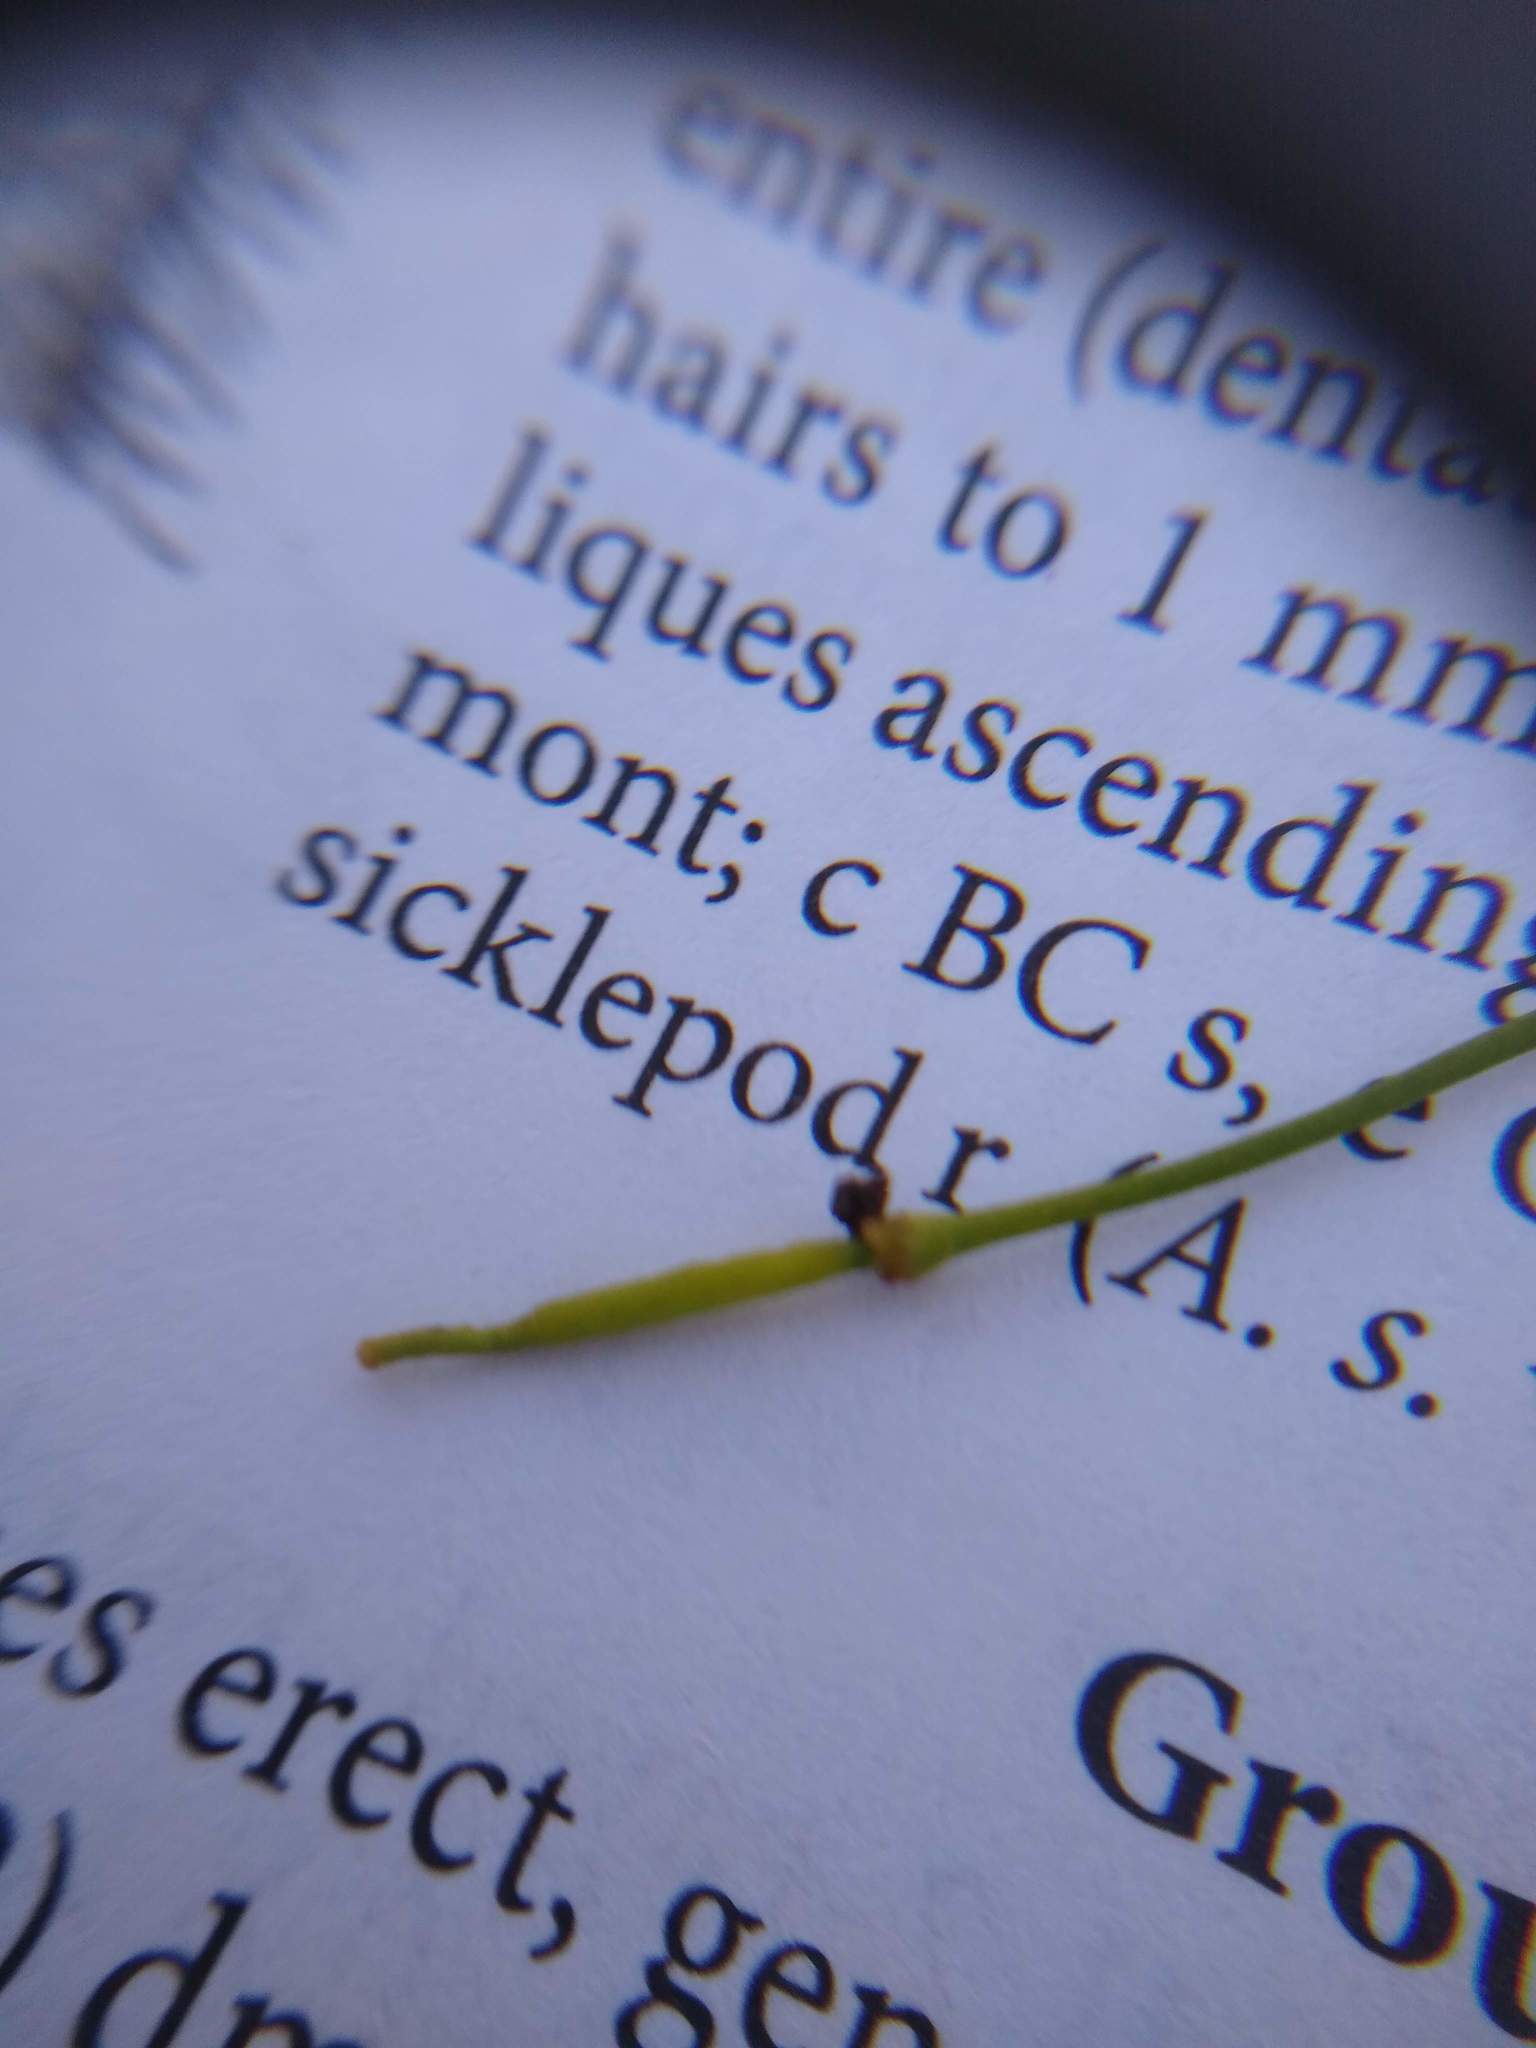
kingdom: Plantae
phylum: Tracheophyta
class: Magnoliopsida
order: Brassicales
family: Brassicaceae
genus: Brassica
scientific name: Brassica rapa
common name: Field mustard
